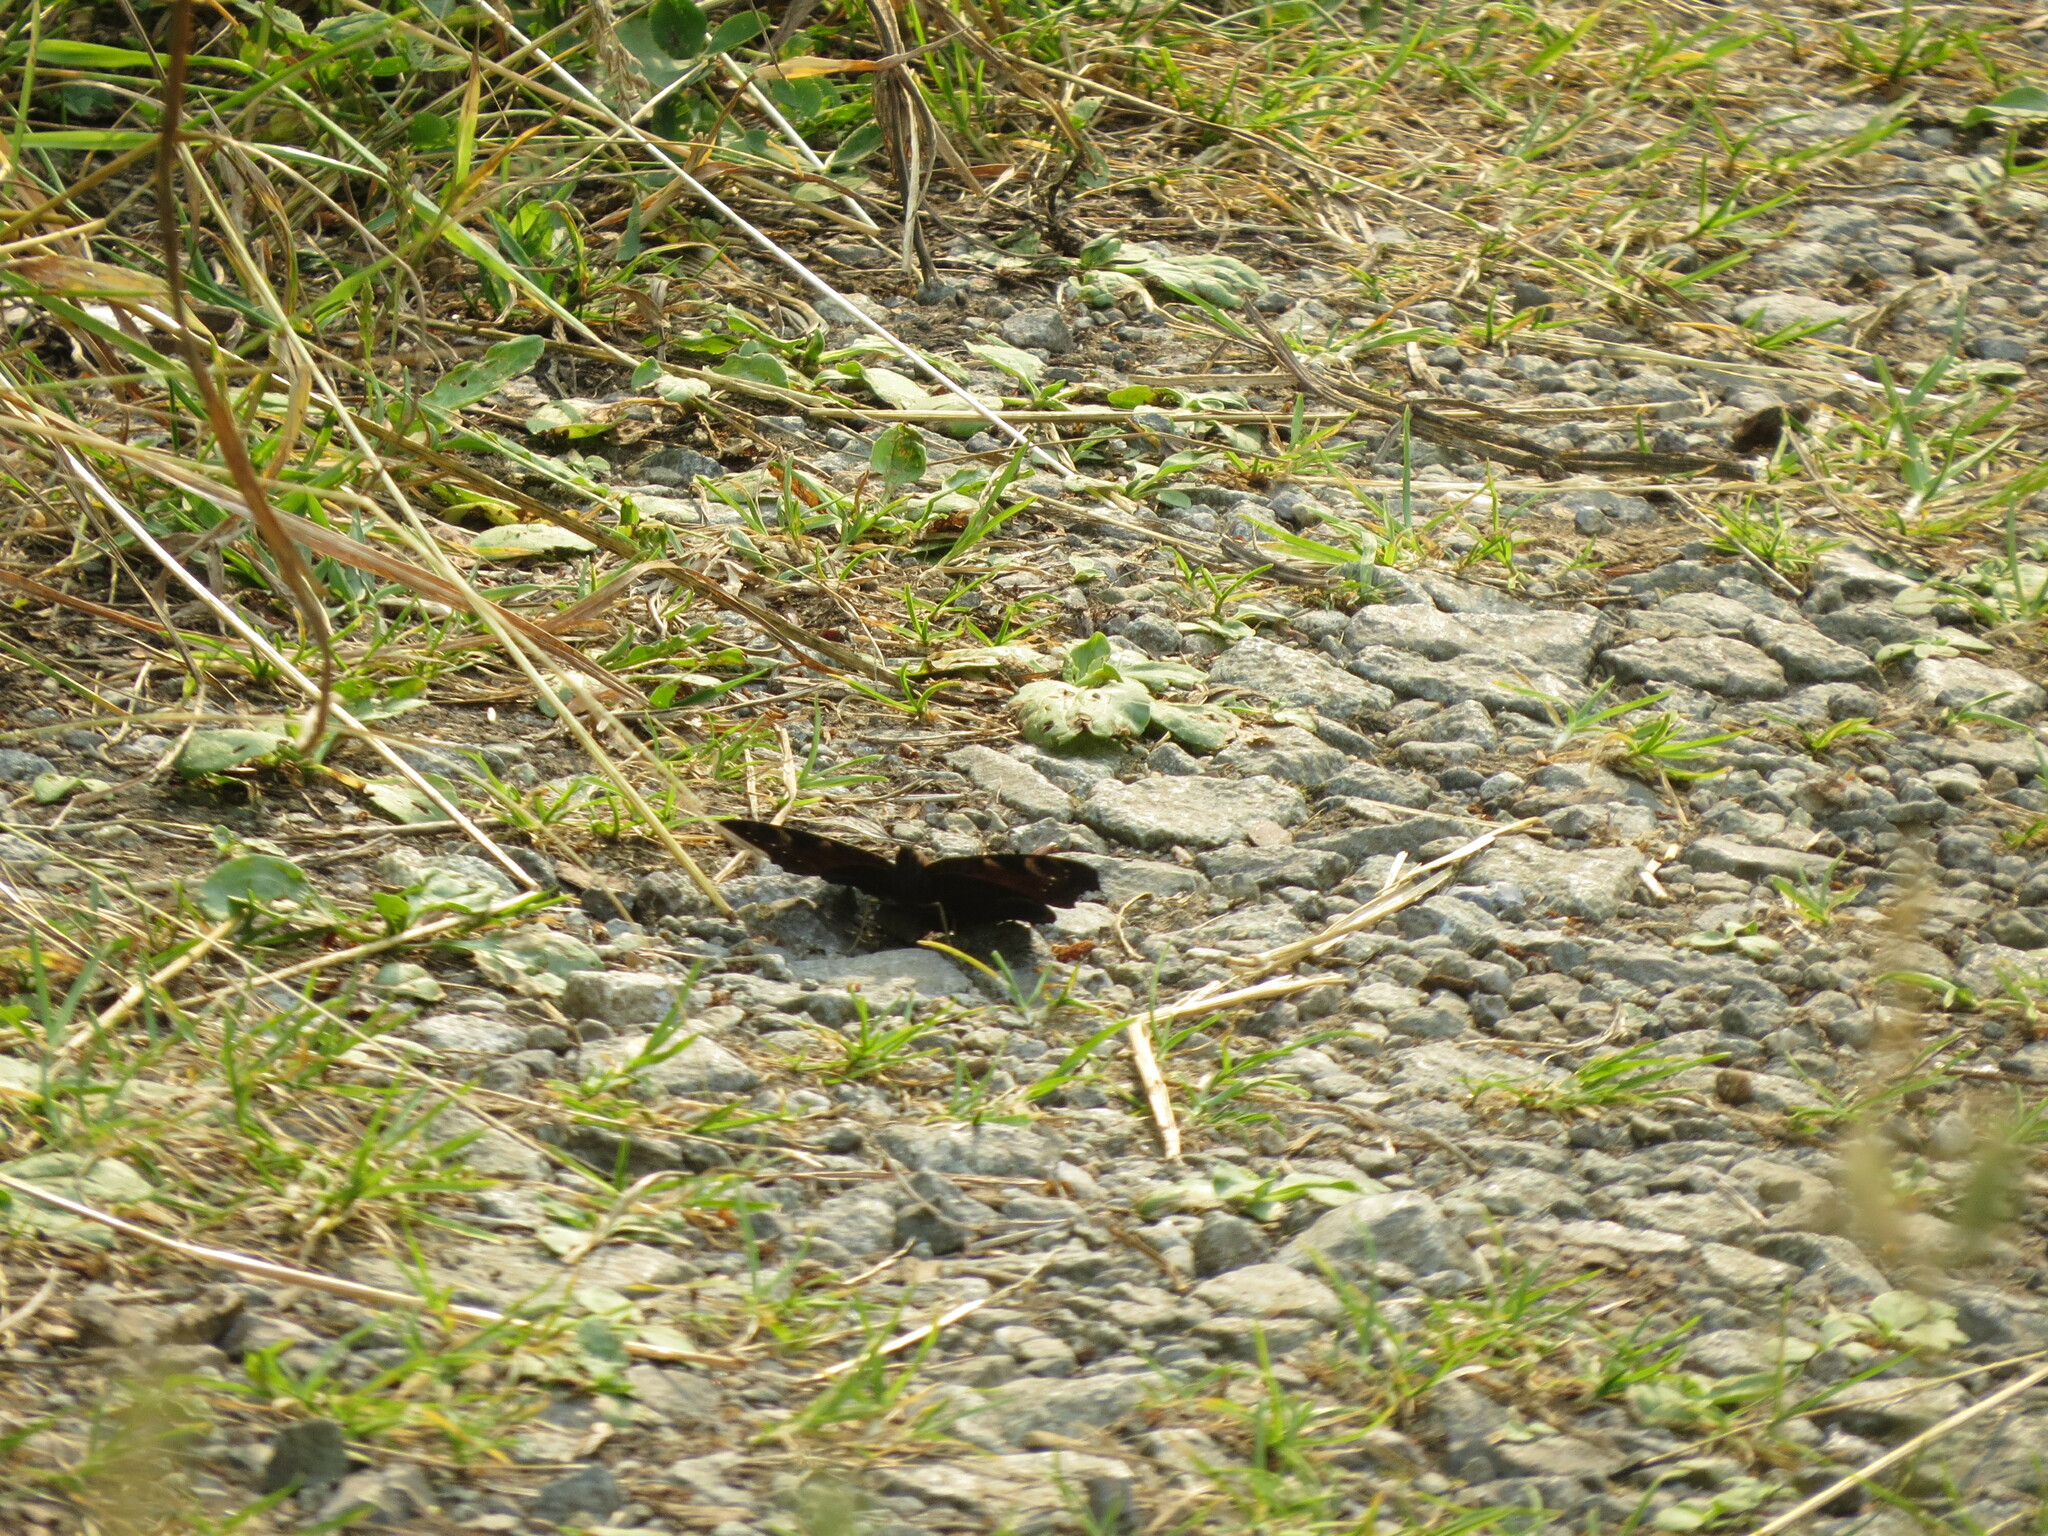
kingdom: Animalia
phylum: Arthropoda
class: Insecta
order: Lepidoptera
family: Nymphalidae
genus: Aglais
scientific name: Aglais io
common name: Peacock
